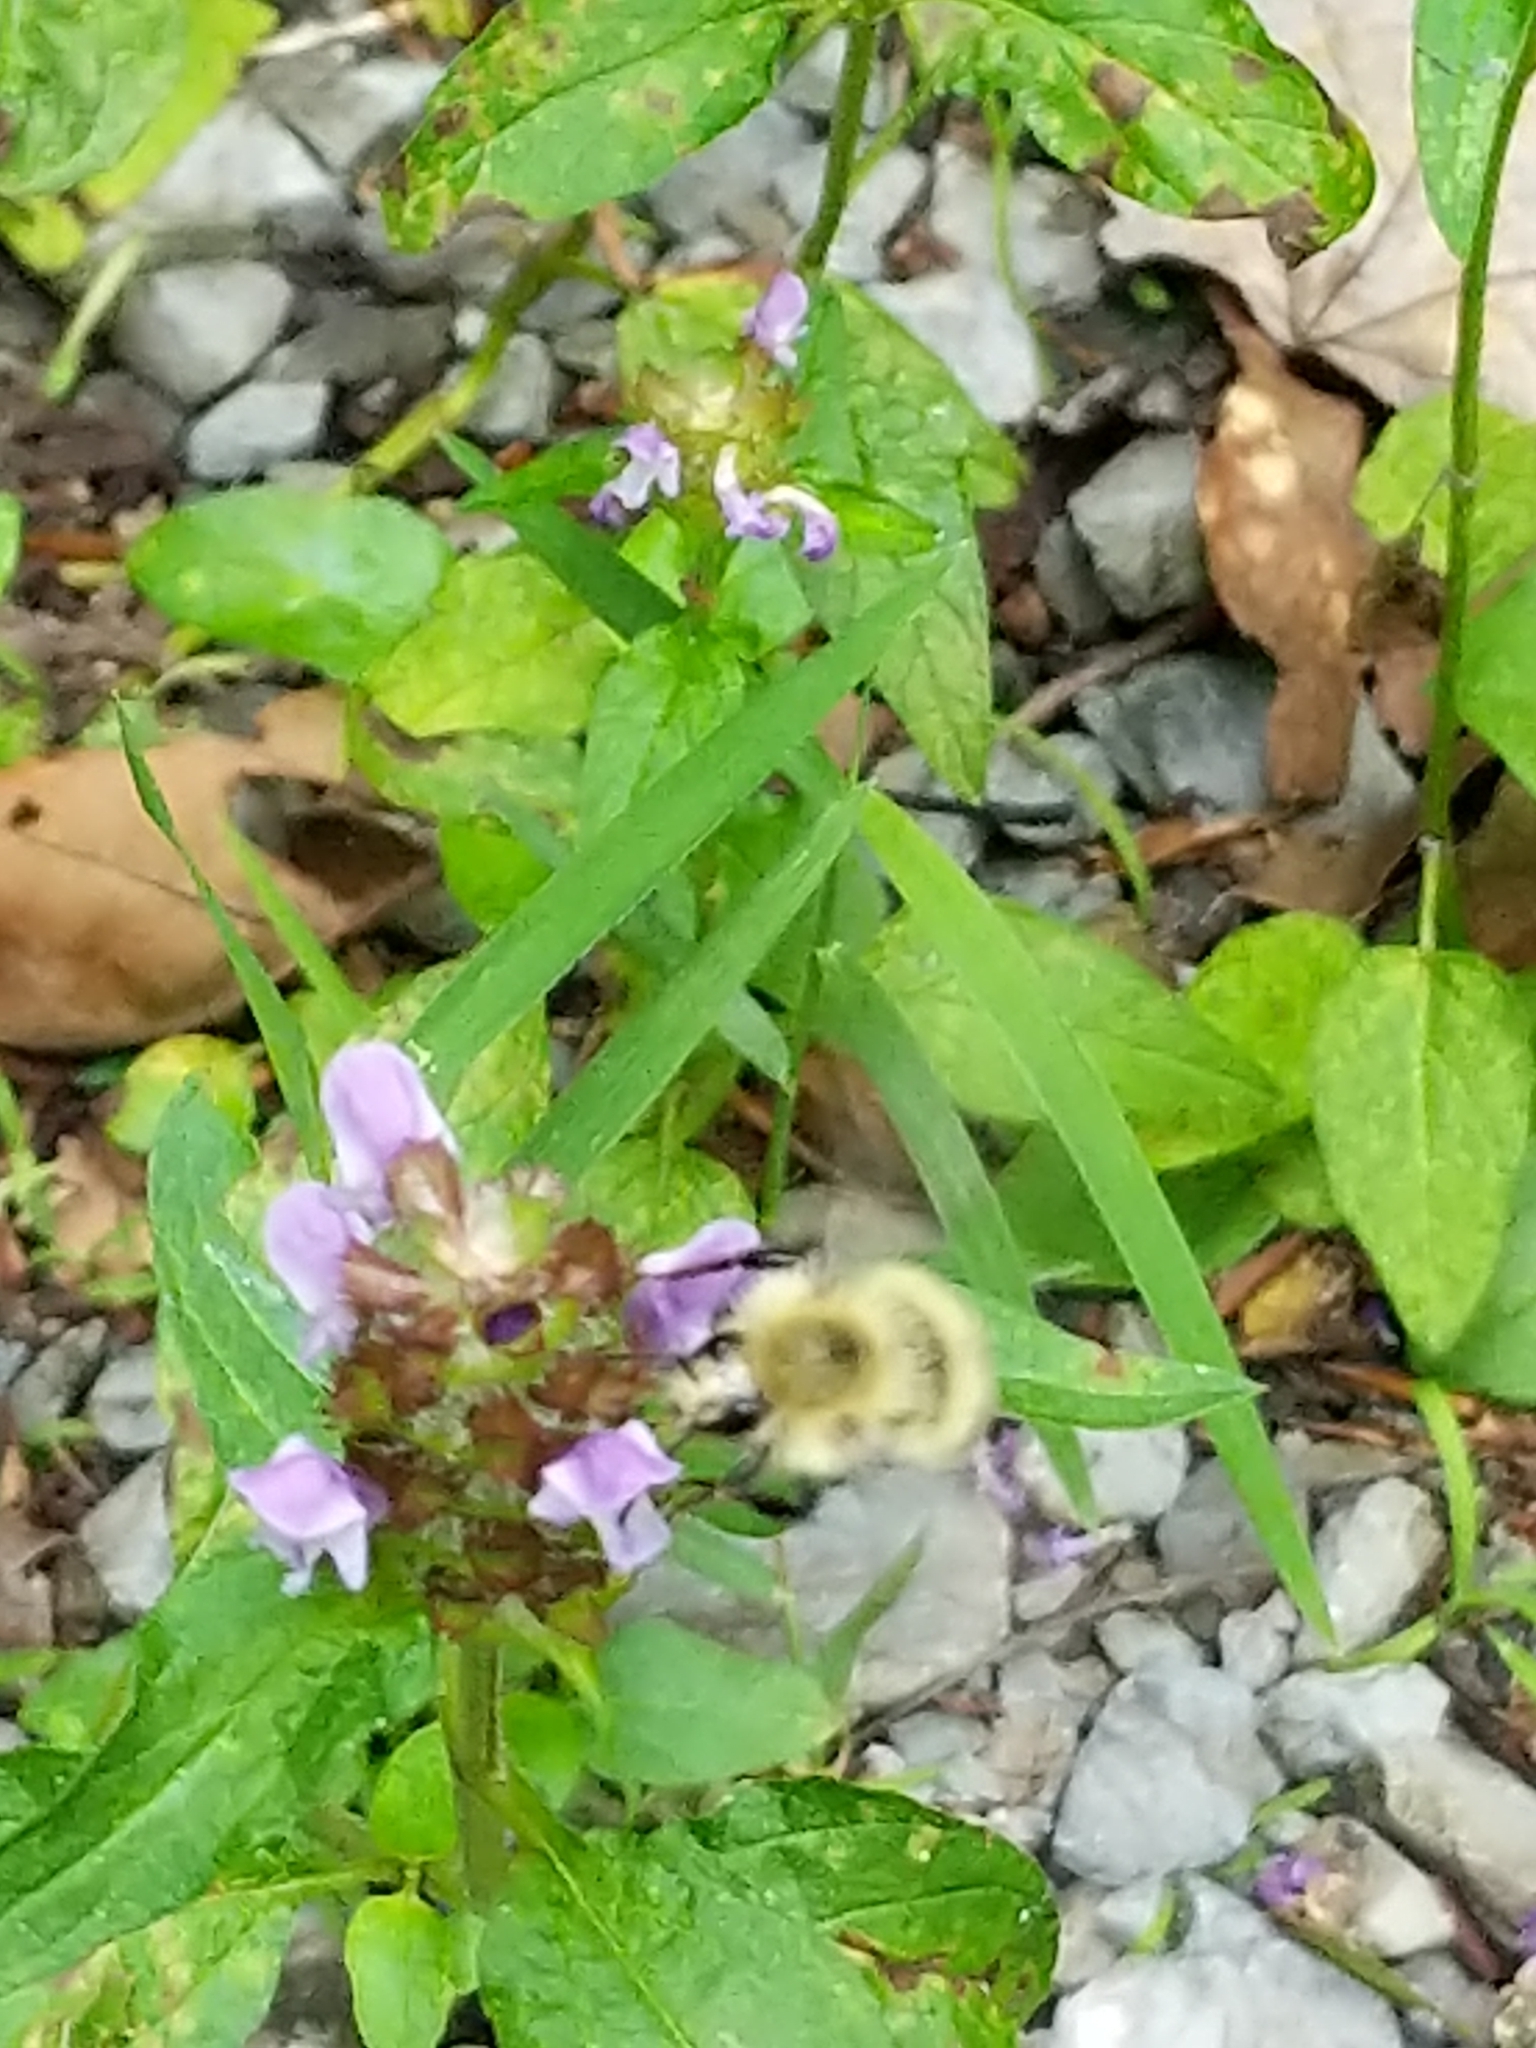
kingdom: Animalia
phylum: Arthropoda
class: Insecta
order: Hymenoptera
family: Apidae
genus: Bombus
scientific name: Bombus perplexus
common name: Confusing bumble bee
